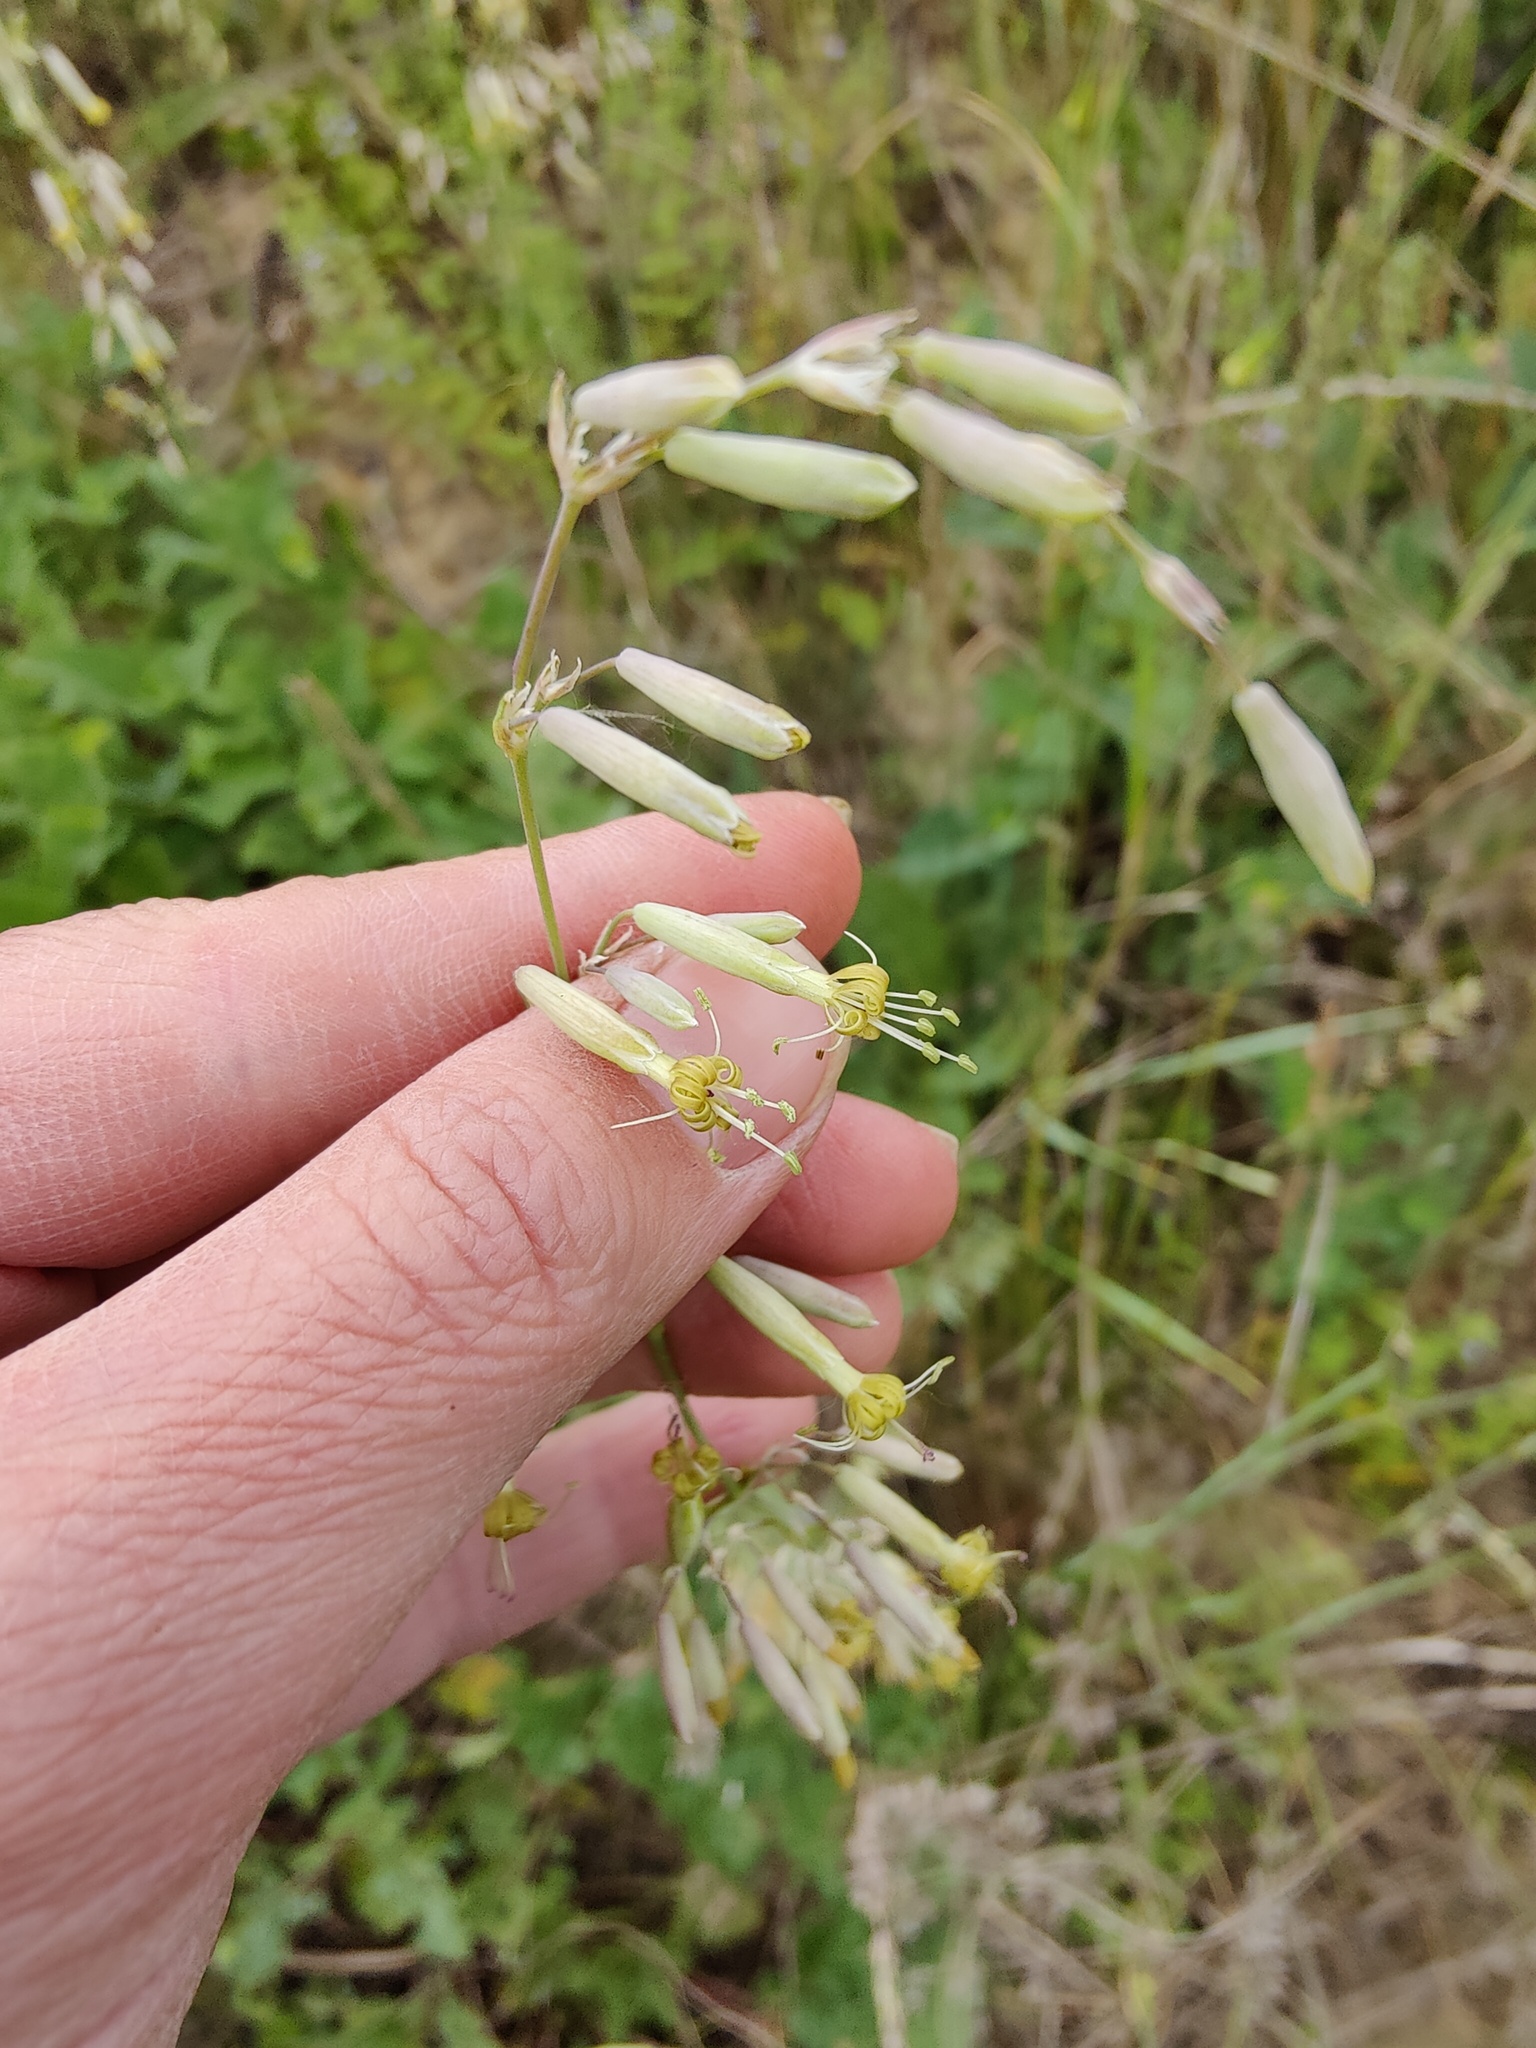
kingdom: Plantae
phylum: Tracheophyta
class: Magnoliopsida
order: Caryophyllales
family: Caryophyllaceae
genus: Silene
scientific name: Silene chlorantha
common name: Yellowgreen catchfly
